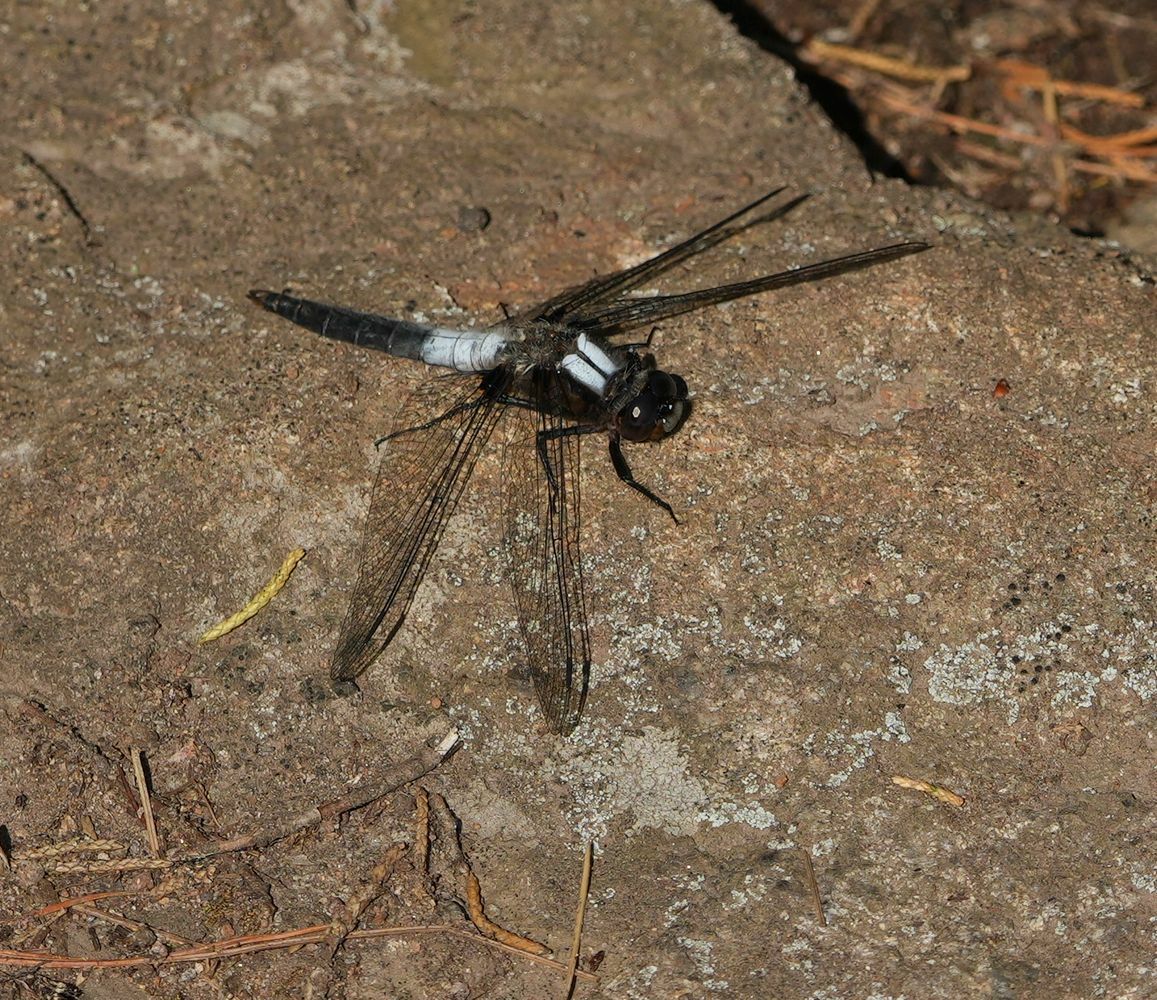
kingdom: Animalia
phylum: Arthropoda
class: Insecta
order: Odonata
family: Libellulidae
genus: Ladona
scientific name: Ladona julia
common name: Chalk-fronted corporal
